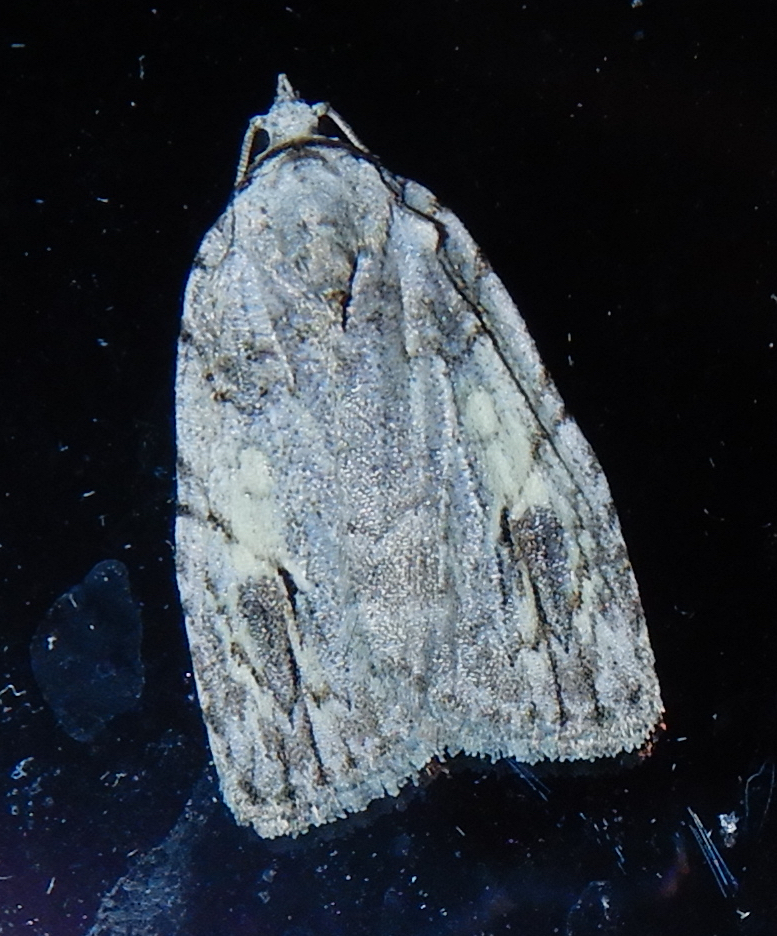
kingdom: Animalia
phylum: Arthropoda
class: Insecta
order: Lepidoptera
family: Noctuidae
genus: Balsa
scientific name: Balsa labecula
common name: White-blotched balsa moth
